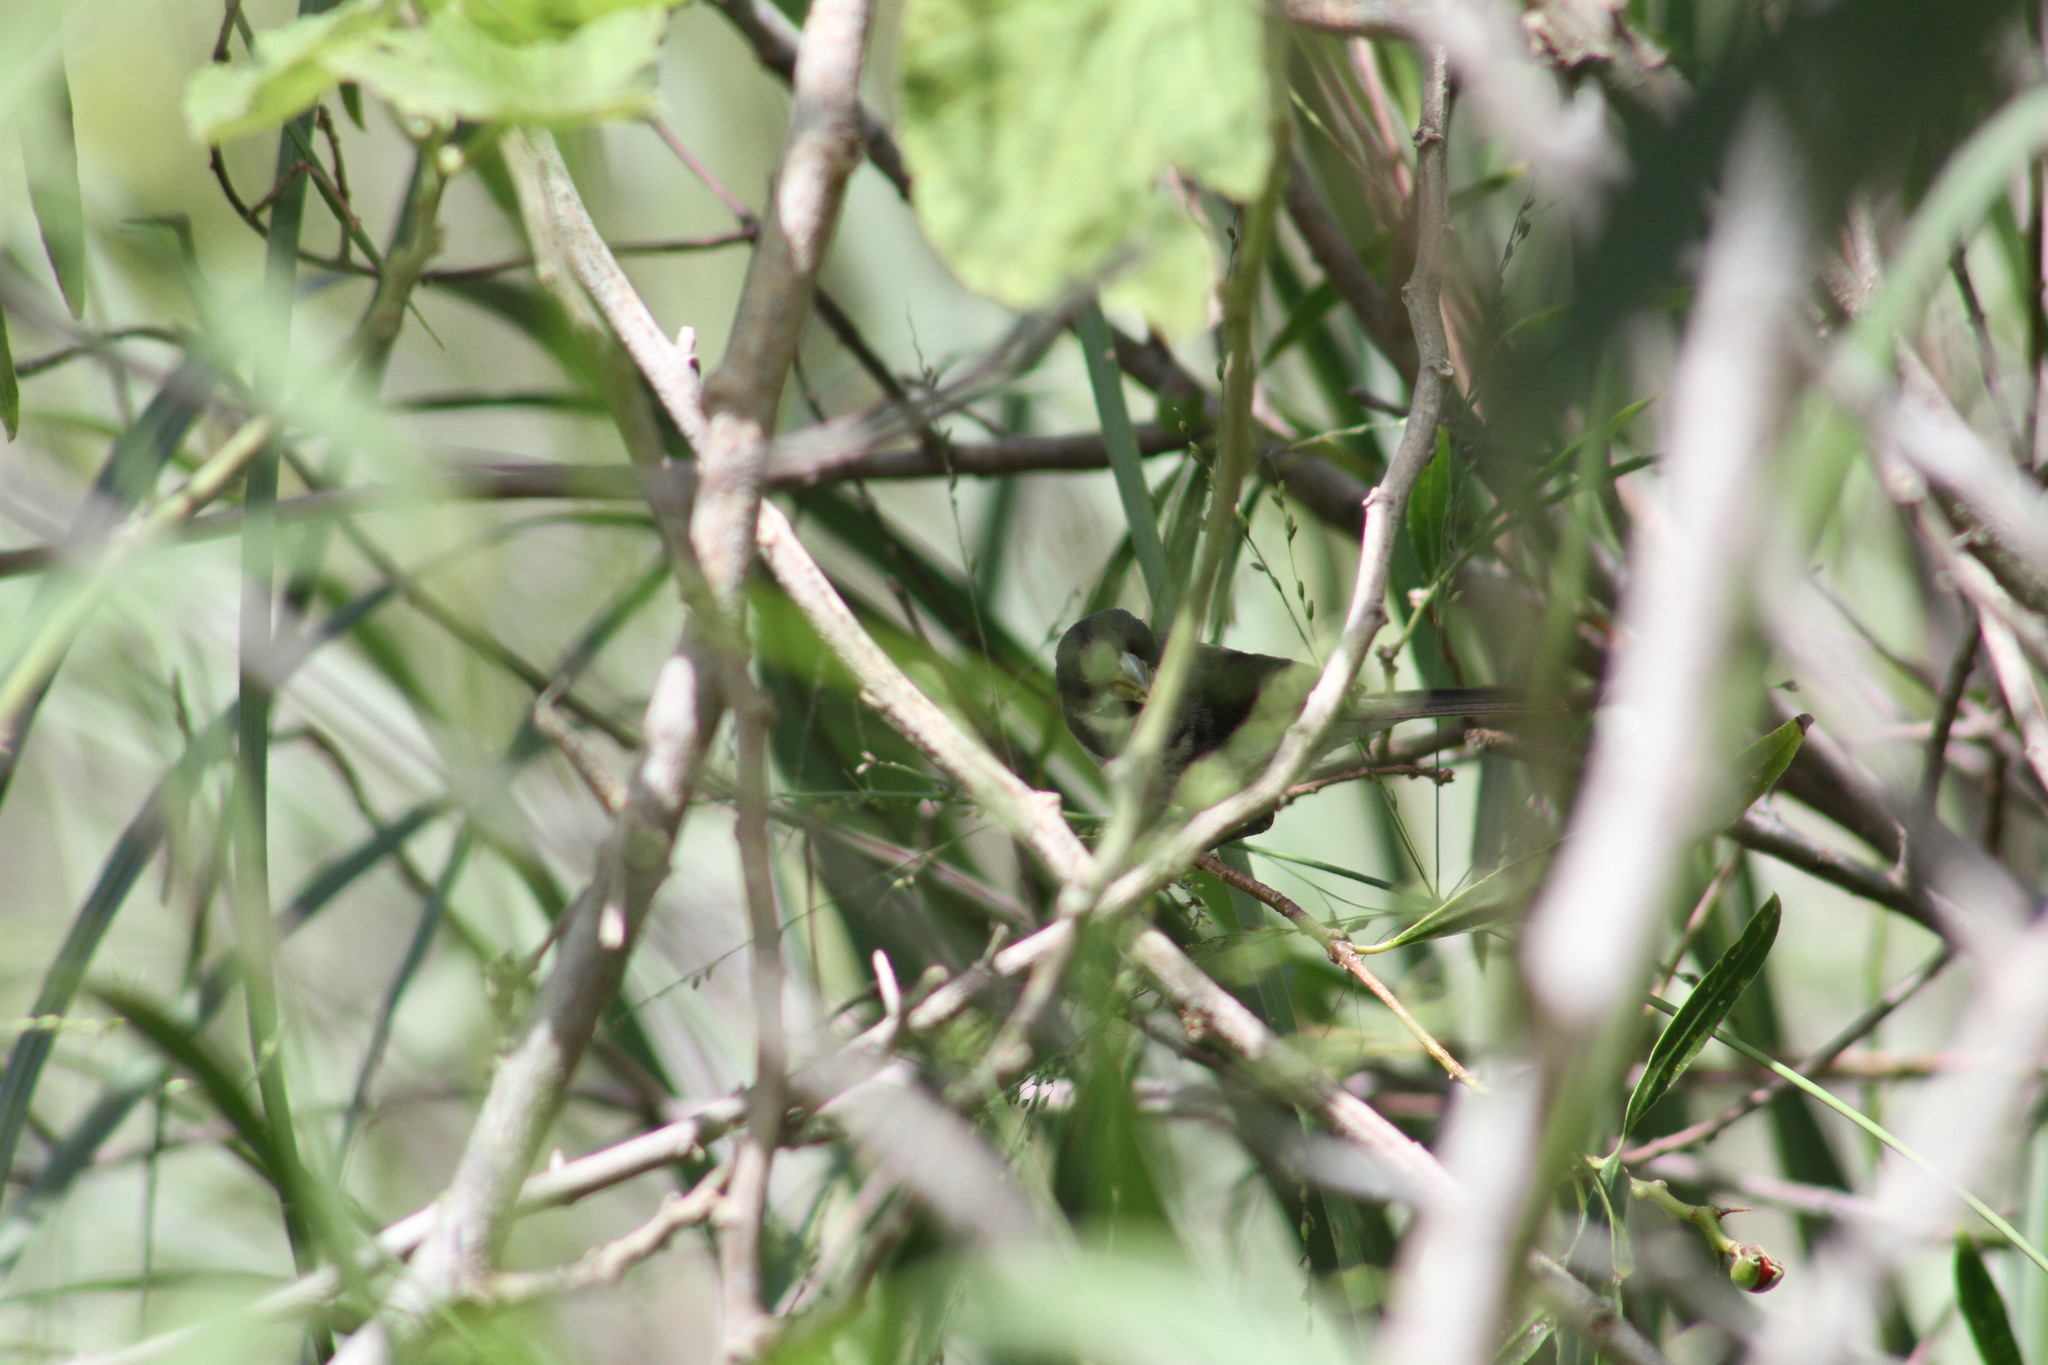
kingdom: Animalia
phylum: Chordata
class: Aves
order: Passeriformes
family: Thraupidae
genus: Sporophila
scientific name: Sporophila caerulescens
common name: Double-collared seedeater
